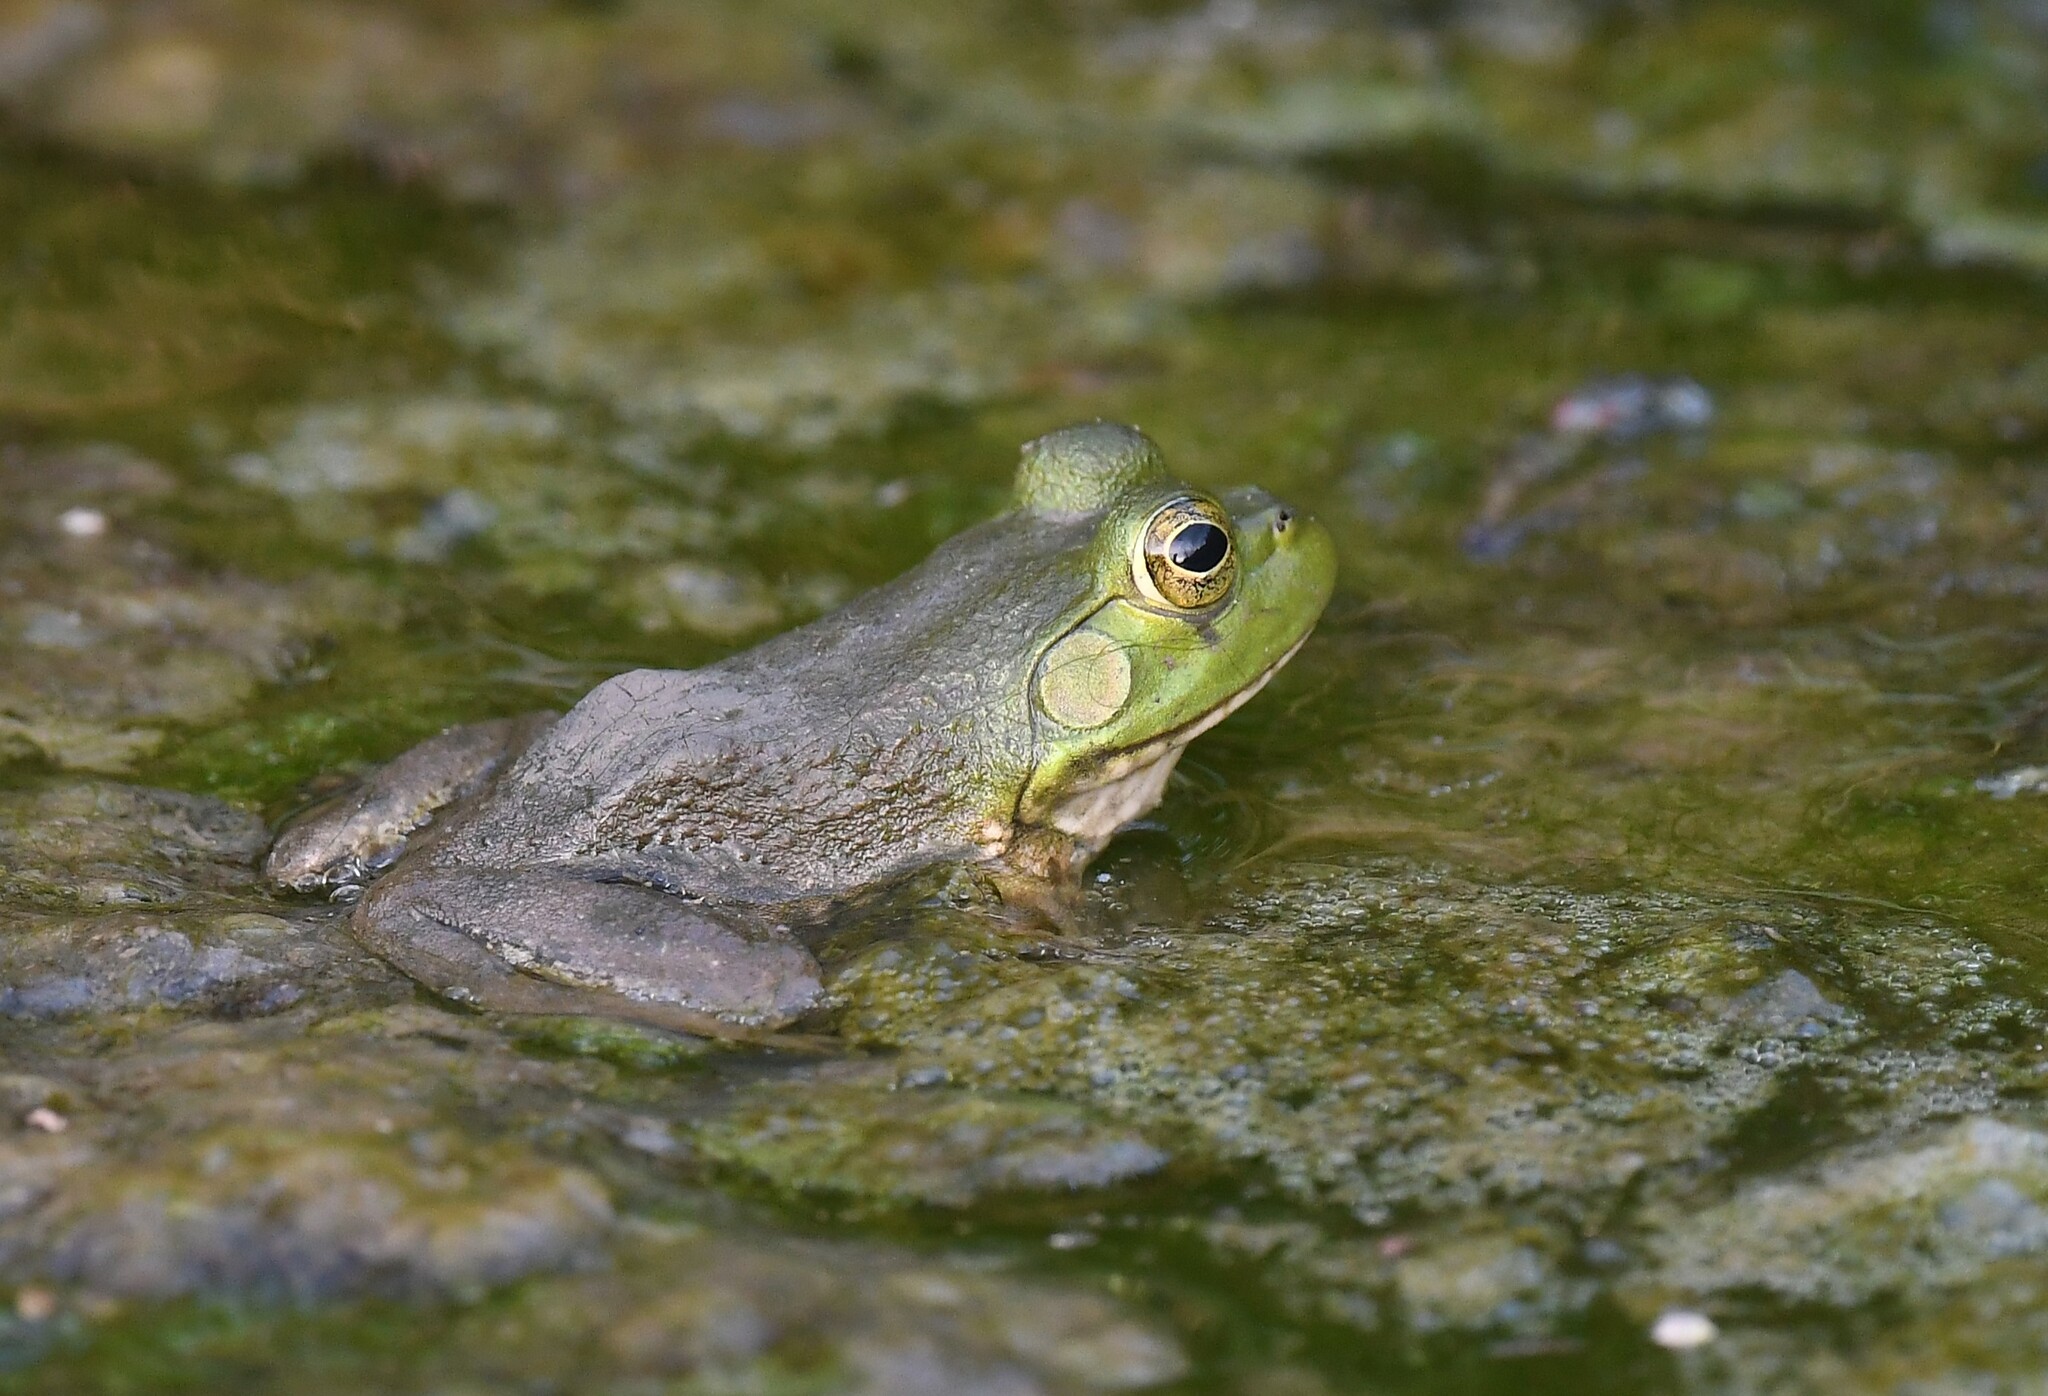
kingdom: Animalia
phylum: Chordata
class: Amphibia
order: Anura
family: Ranidae
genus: Lithobates
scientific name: Lithobates catesbeianus
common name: American bullfrog
